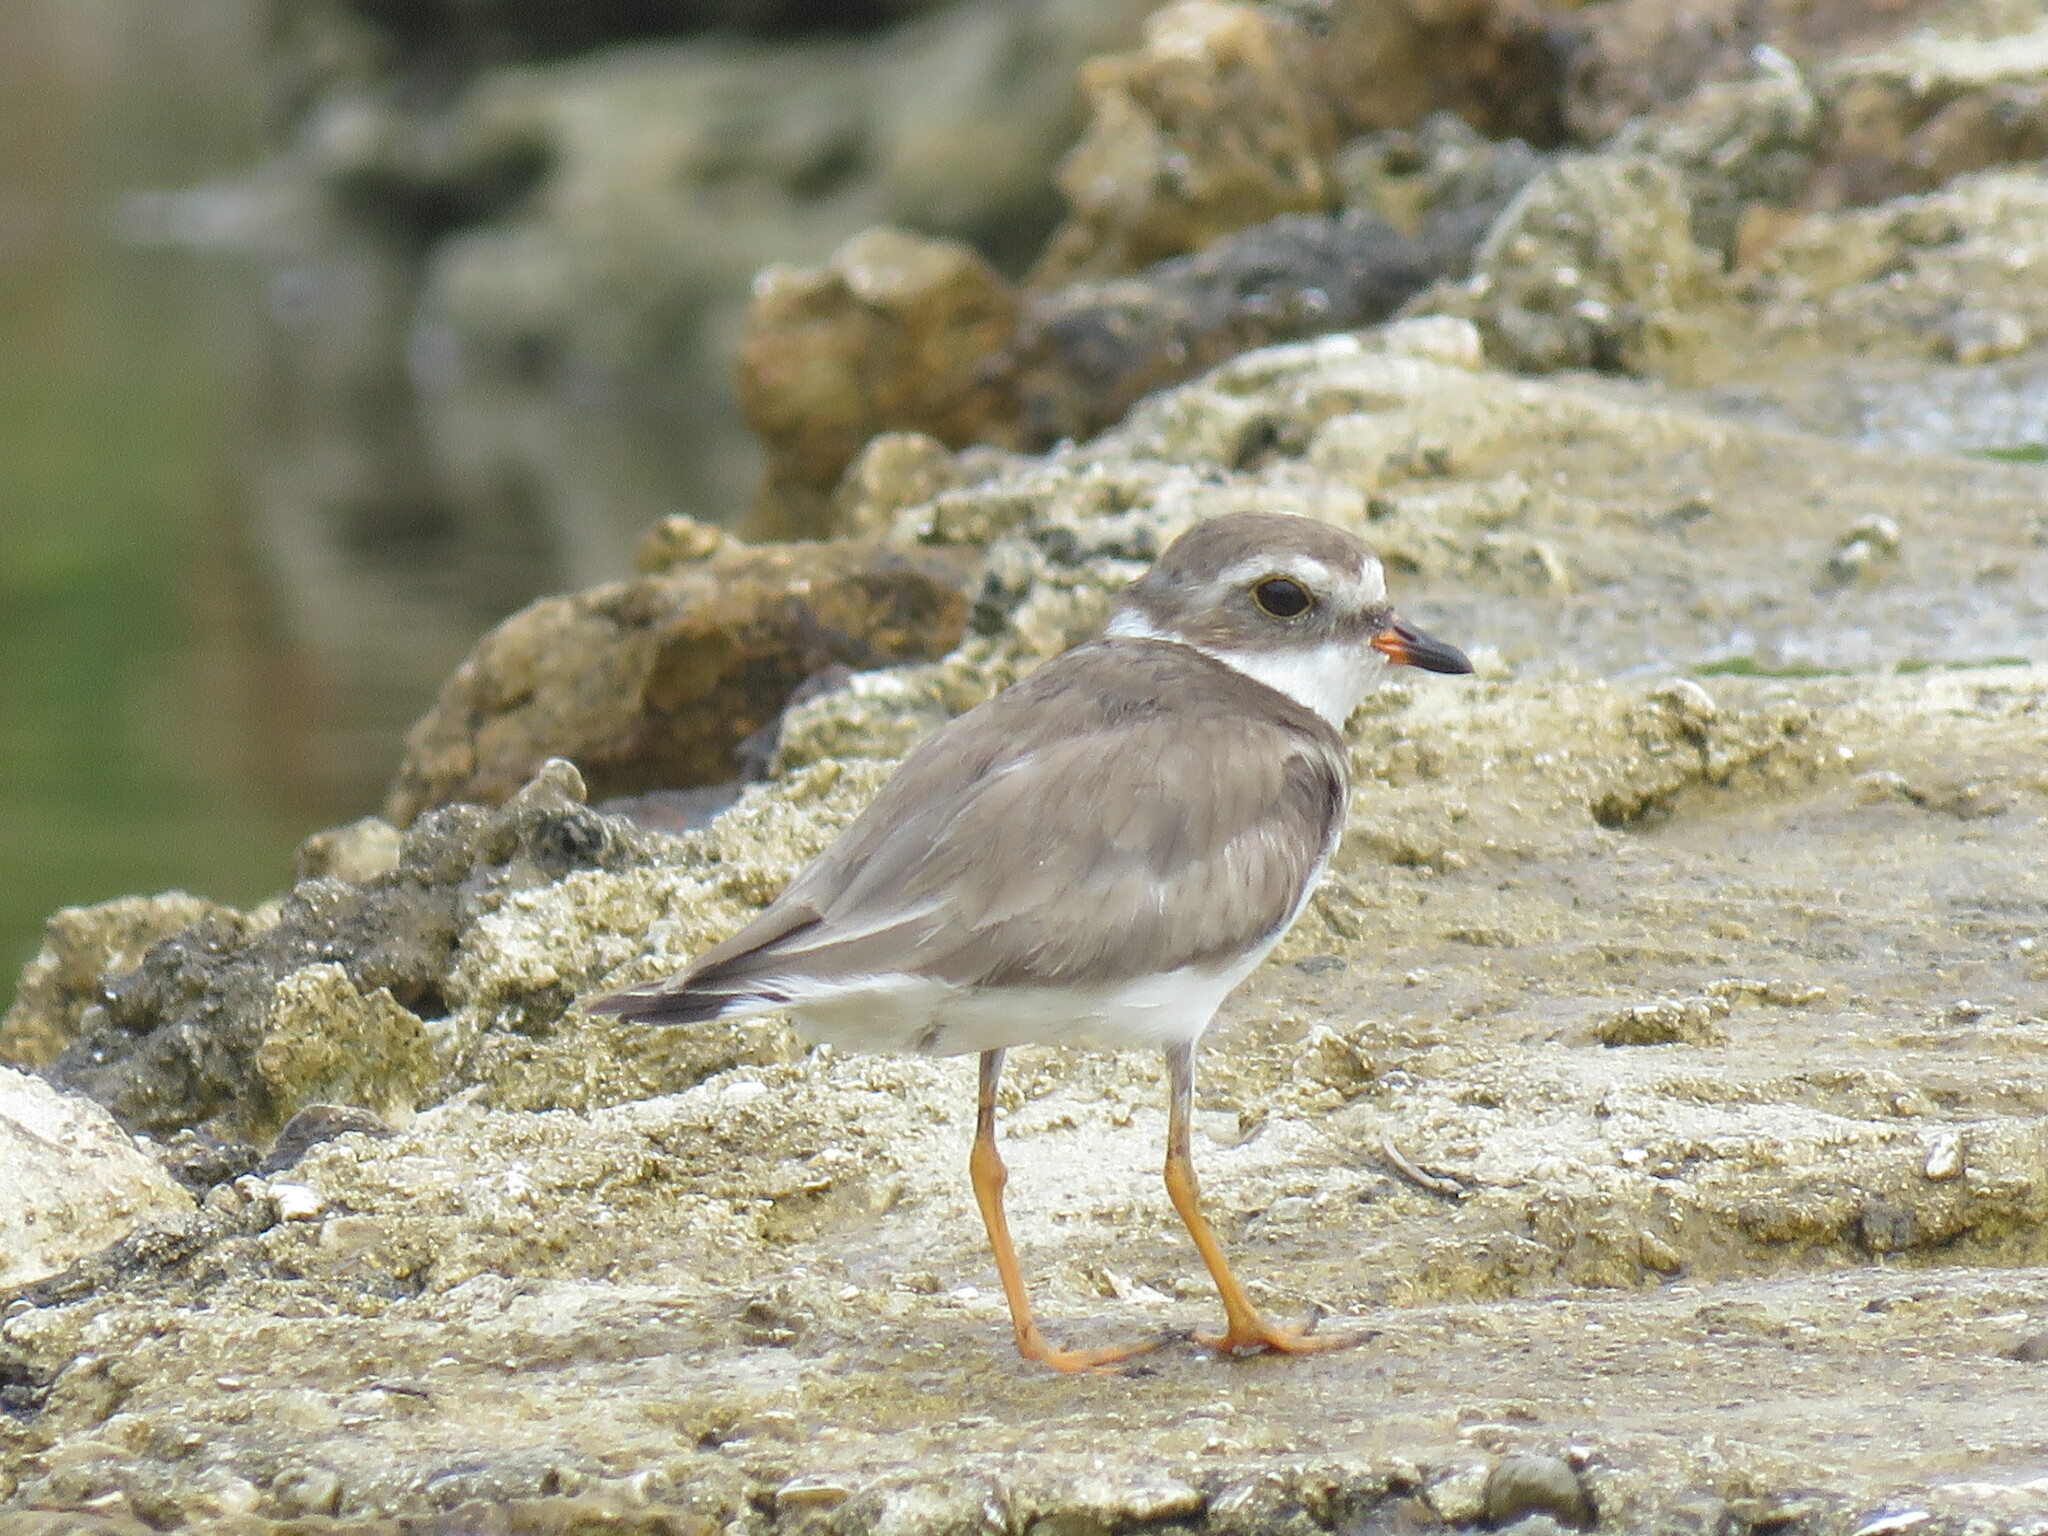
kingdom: Animalia
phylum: Chordata
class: Aves
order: Charadriiformes
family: Charadriidae
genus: Charadrius
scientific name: Charadrius semipalmatus
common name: Semipalmated plover
